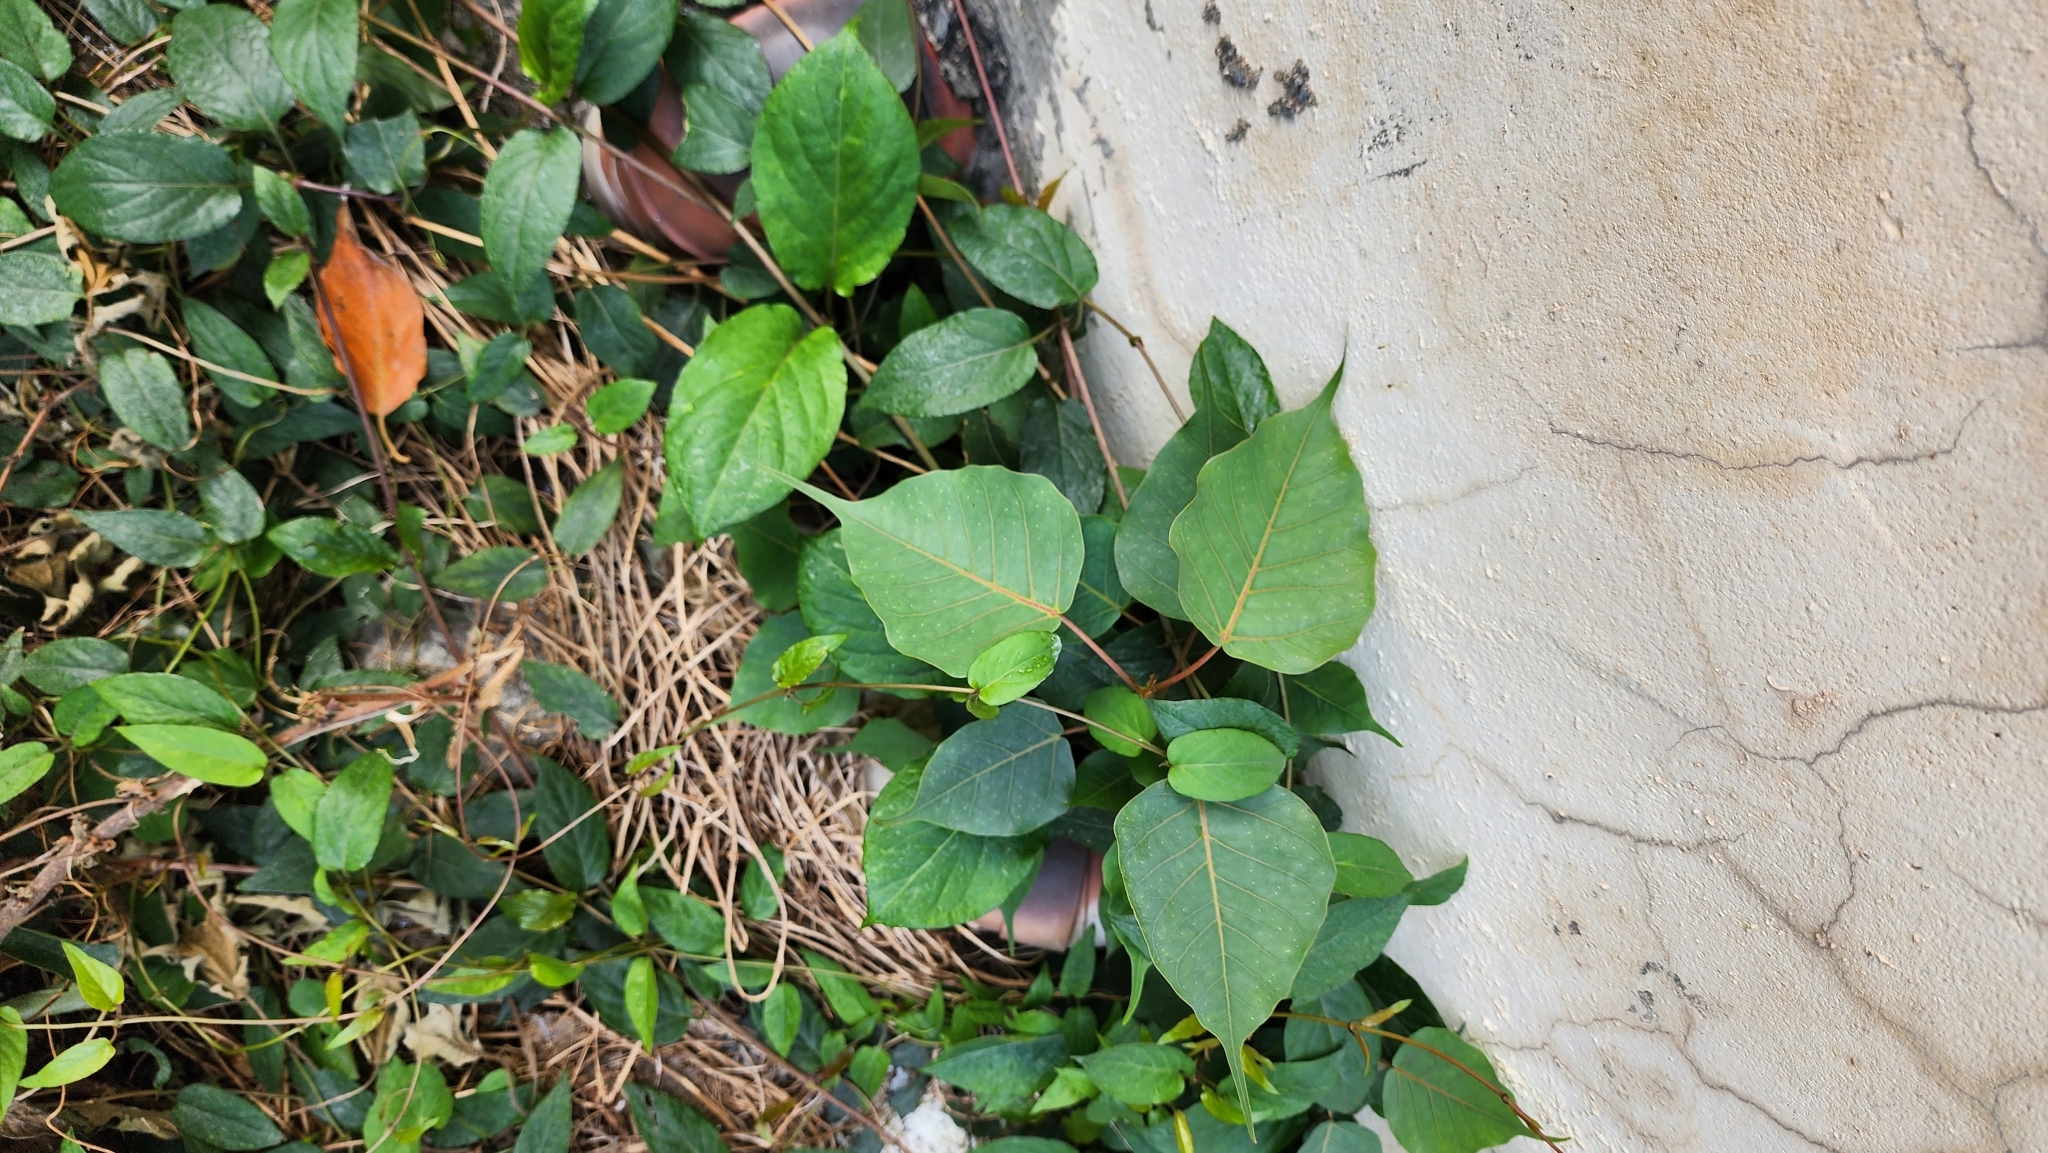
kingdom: Plantae
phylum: Tracheophyta
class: Magnoliopsida
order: Rosales
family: Moraceae
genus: Ficus
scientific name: Ficus religiosa
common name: Bodhi tree
